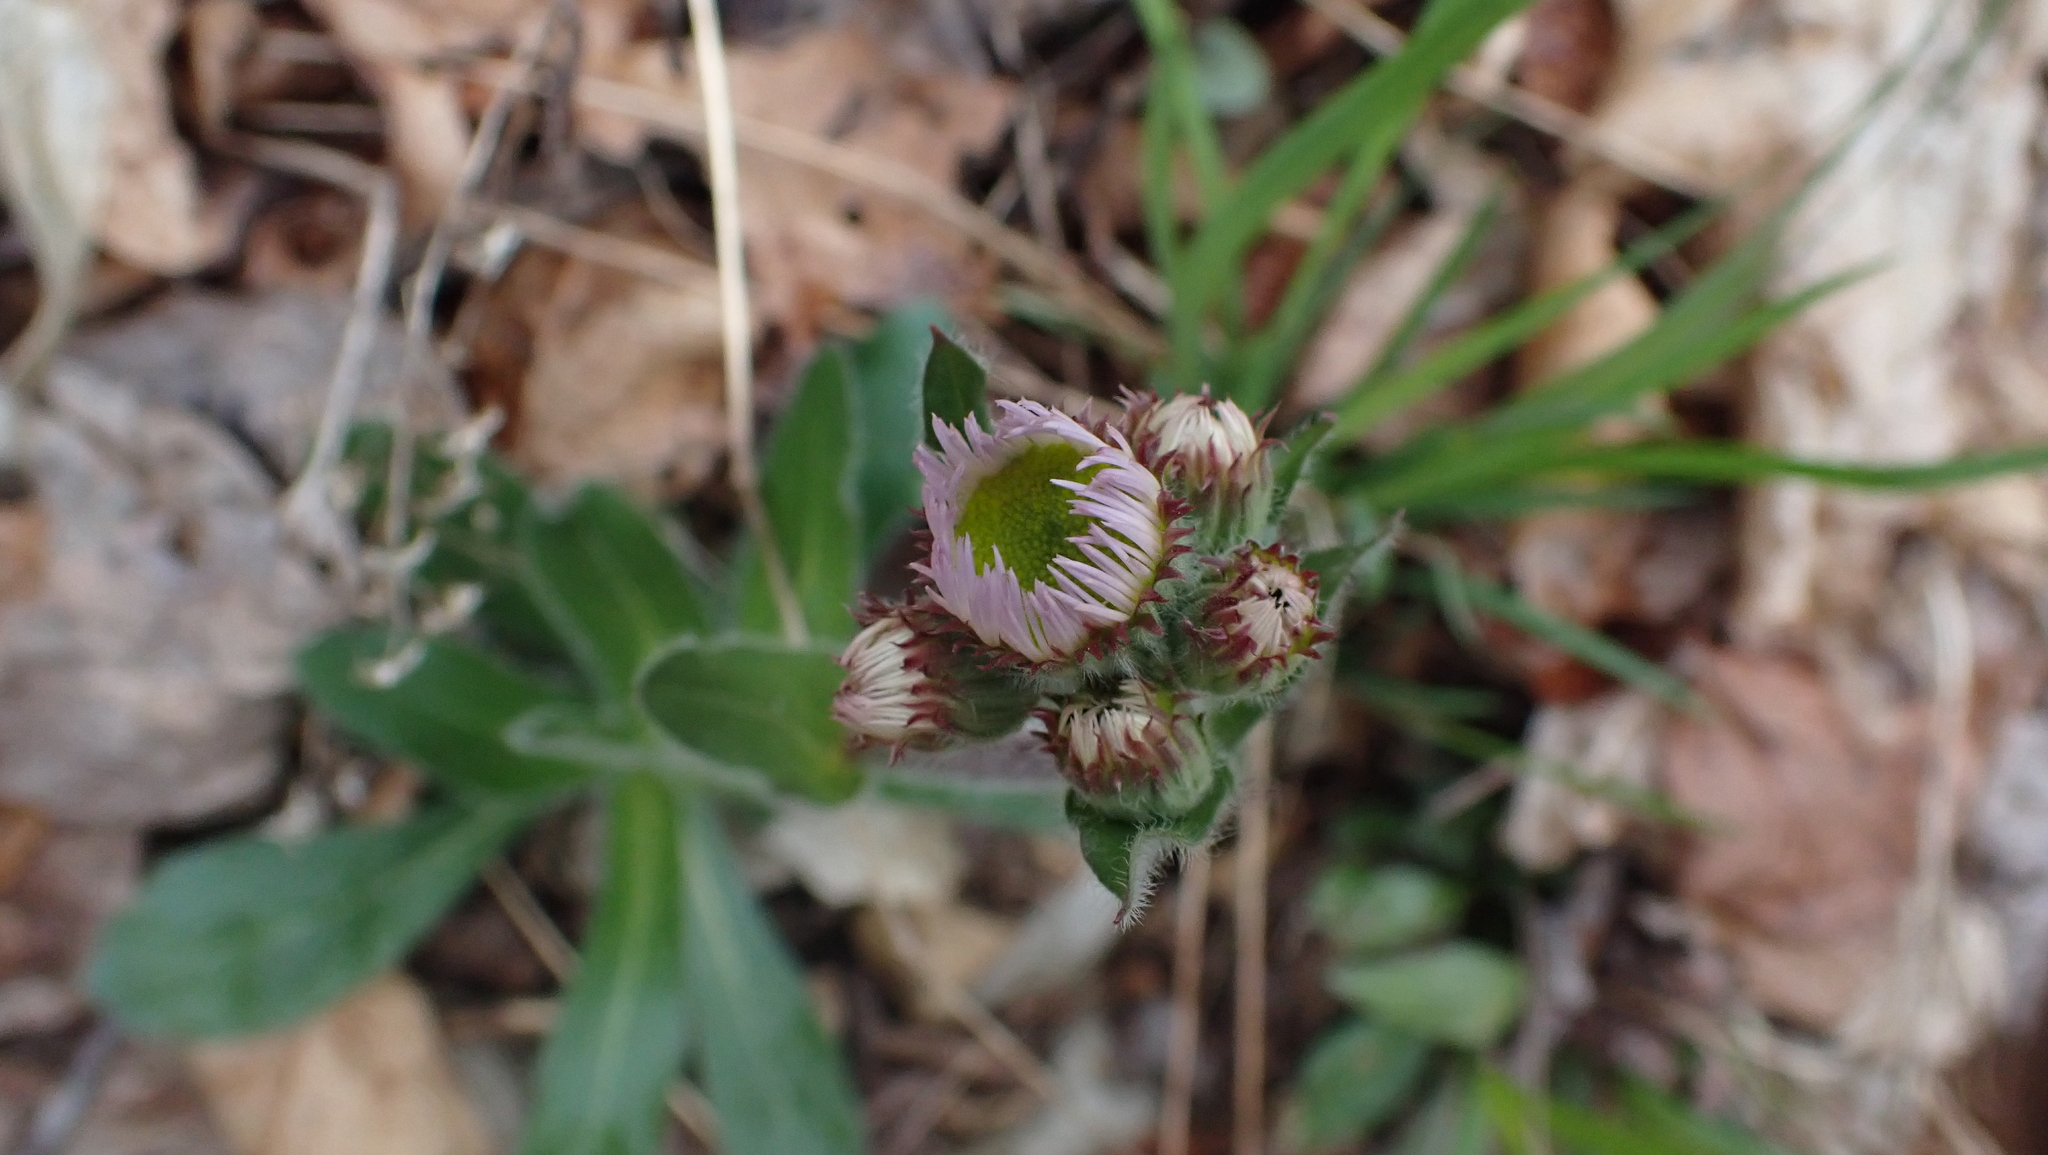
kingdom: Plantae
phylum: Tracheophyta
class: Magnoliopsida
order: Asterales
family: Asteraceae
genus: Erigeron
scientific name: Erigeron pulchellus
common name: Hairy fleabane
